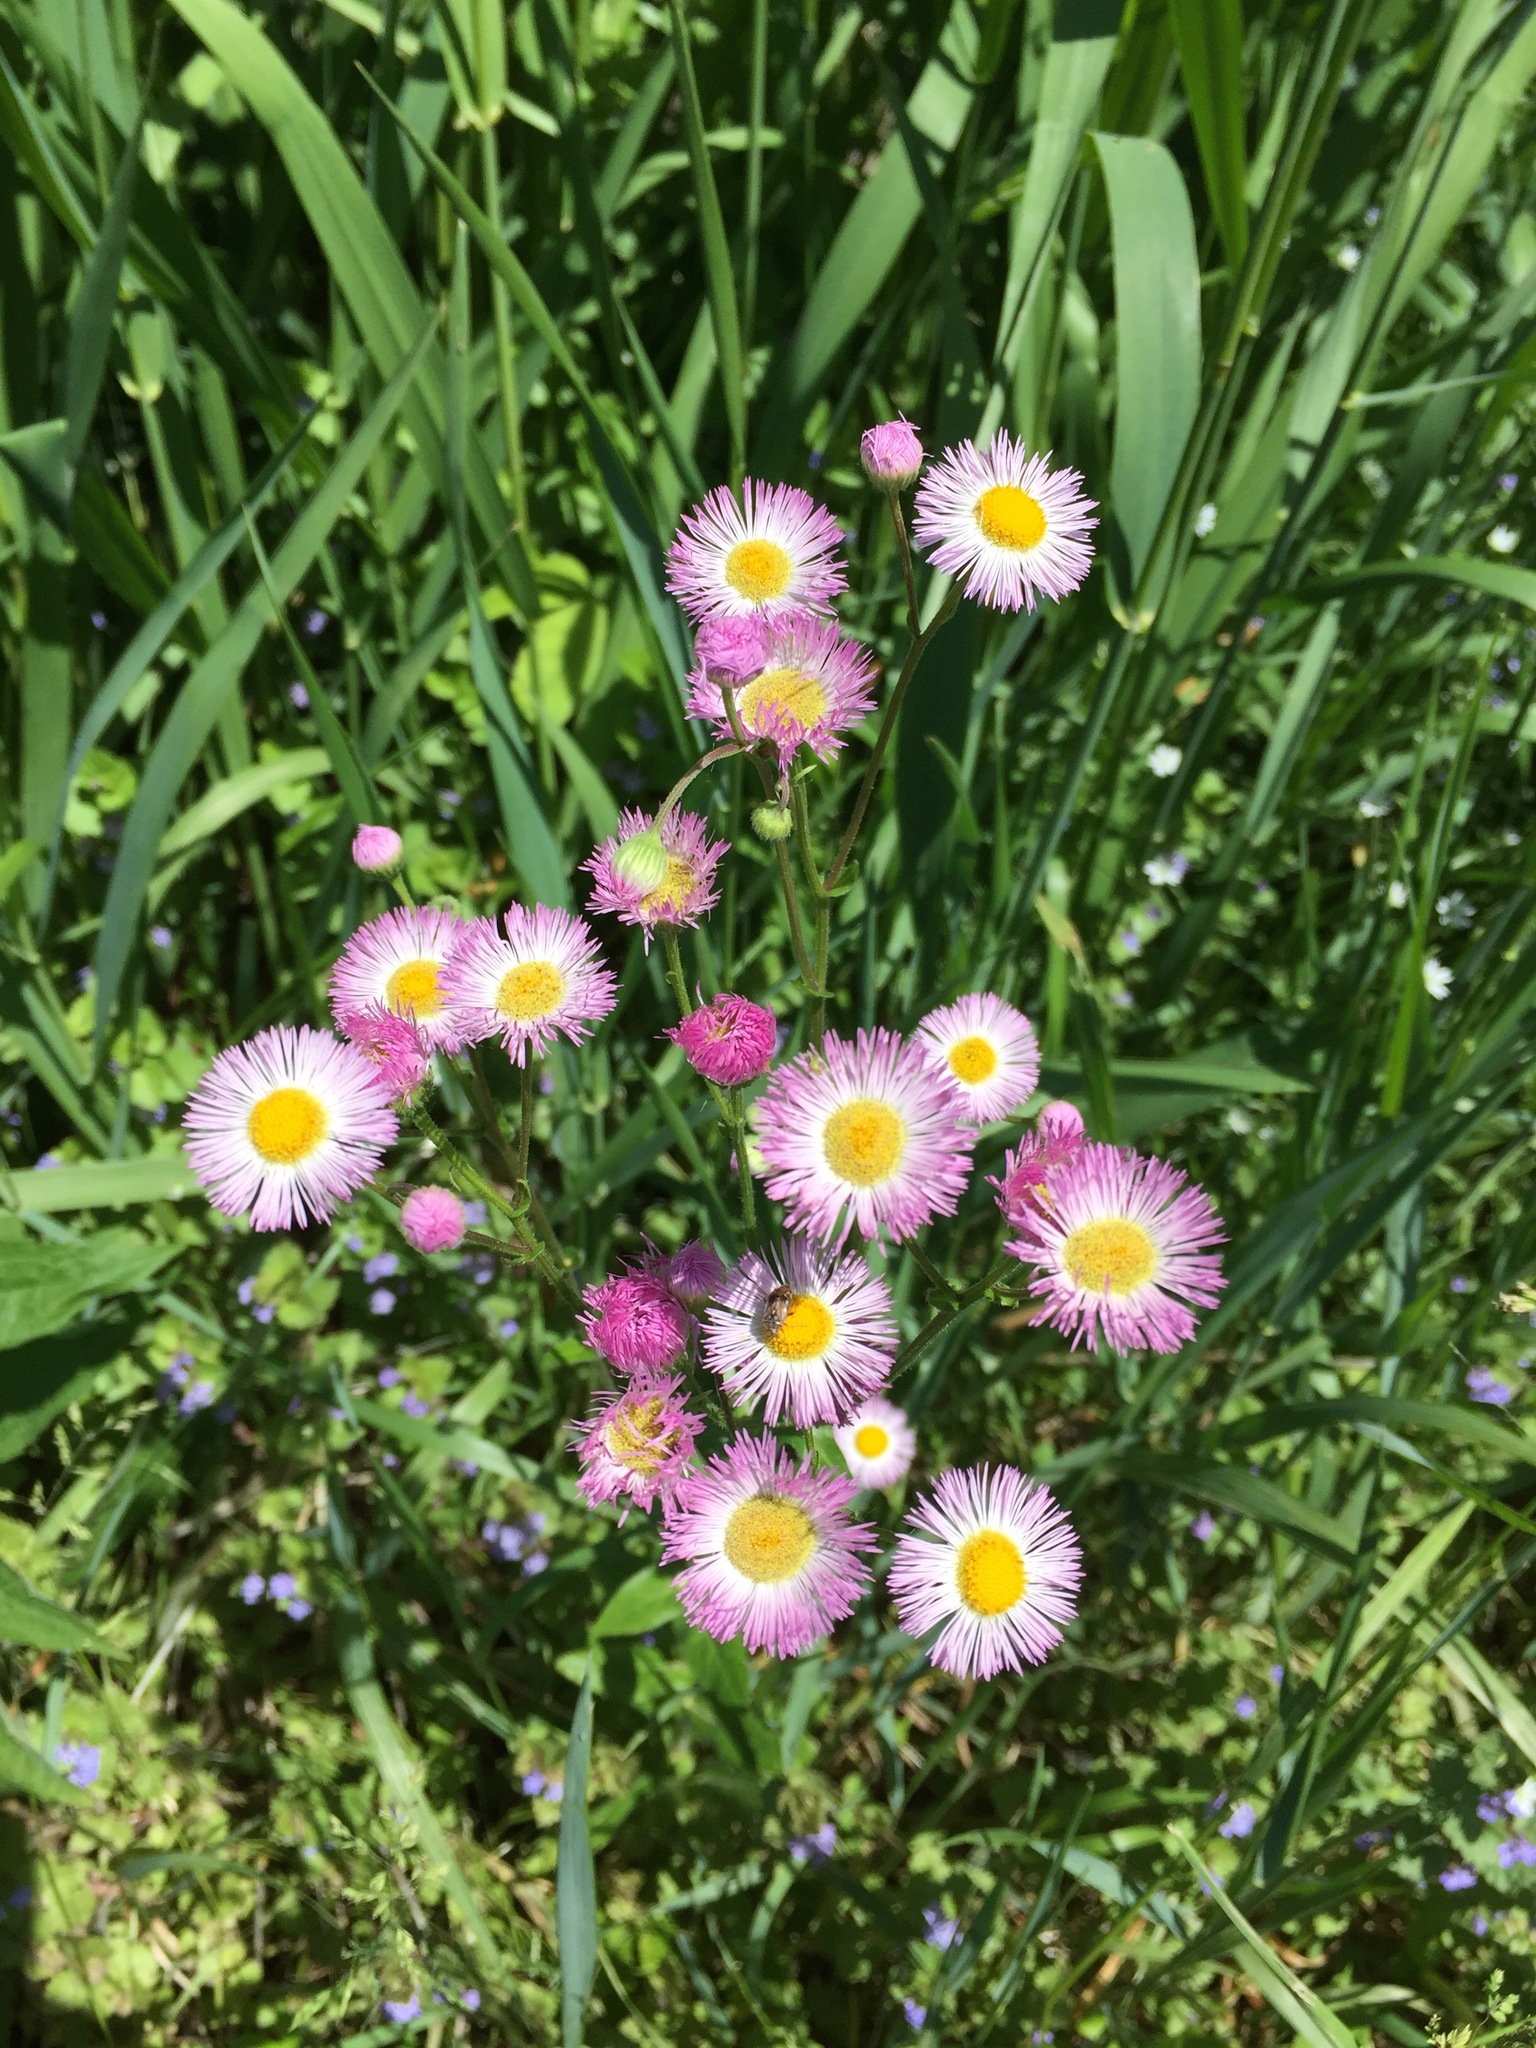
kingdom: Plantae
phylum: Tracheophyta
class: Magnoliopsida
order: Asterales
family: Asteraceae
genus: Erigeron
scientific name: Erigeron philadelphicus
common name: Robin's-plantain
